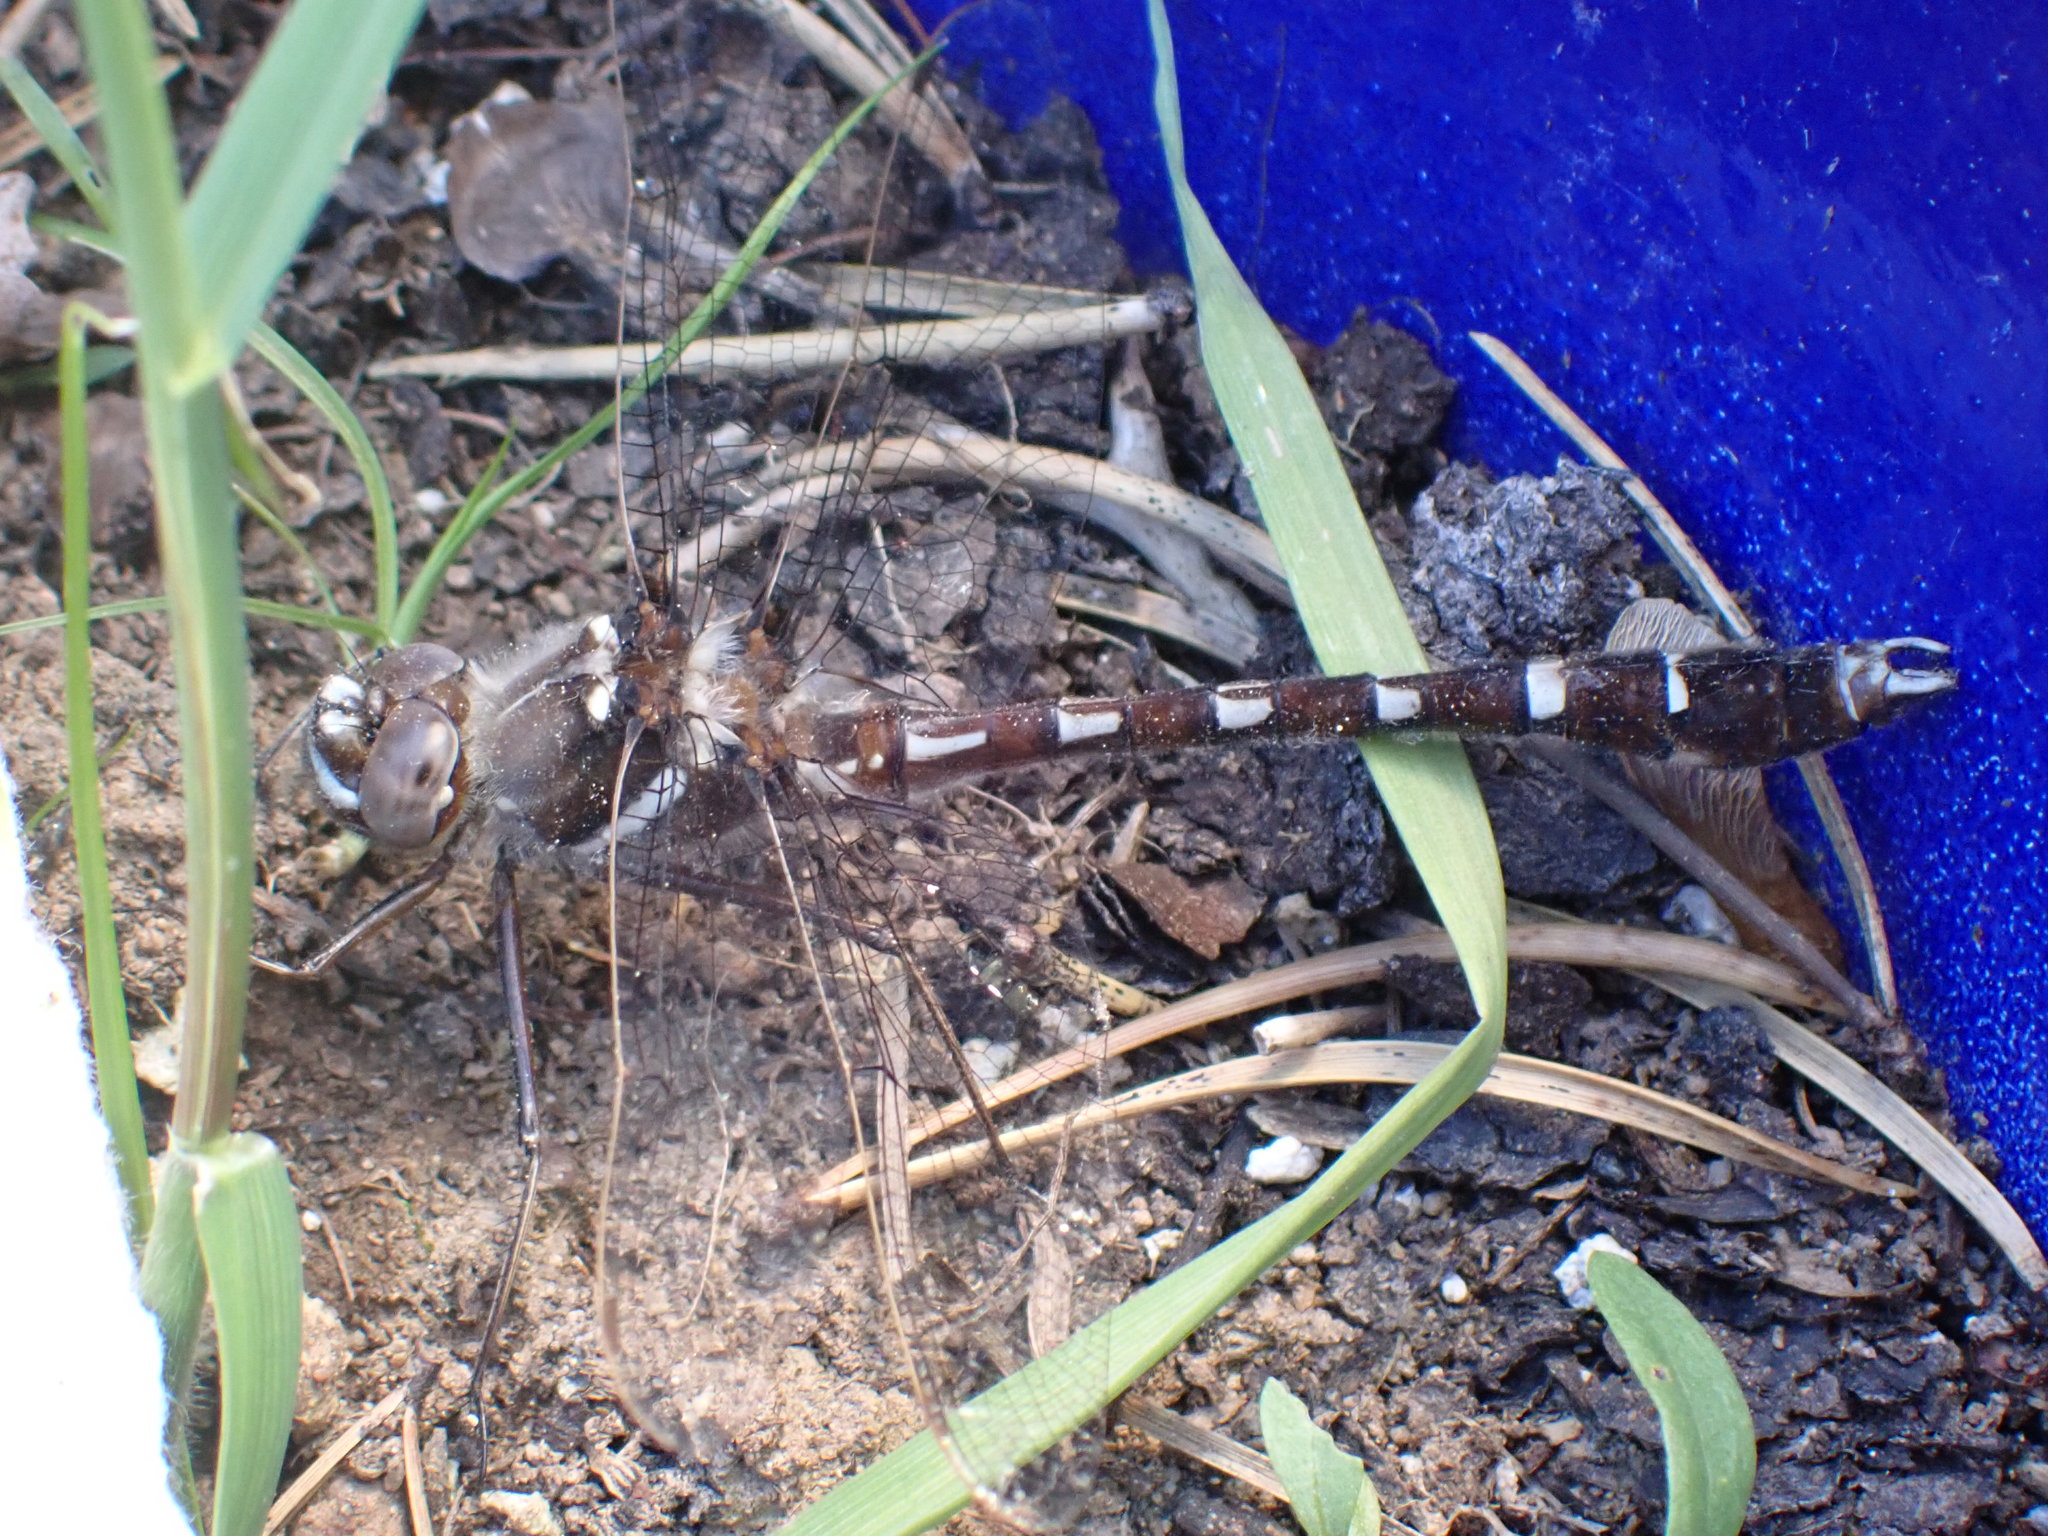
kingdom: Animalia
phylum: Arthropoda
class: Insecta
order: Odonata
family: Macromiidae
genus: Didymops
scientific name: Didymops transversa
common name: Stream cruiser
